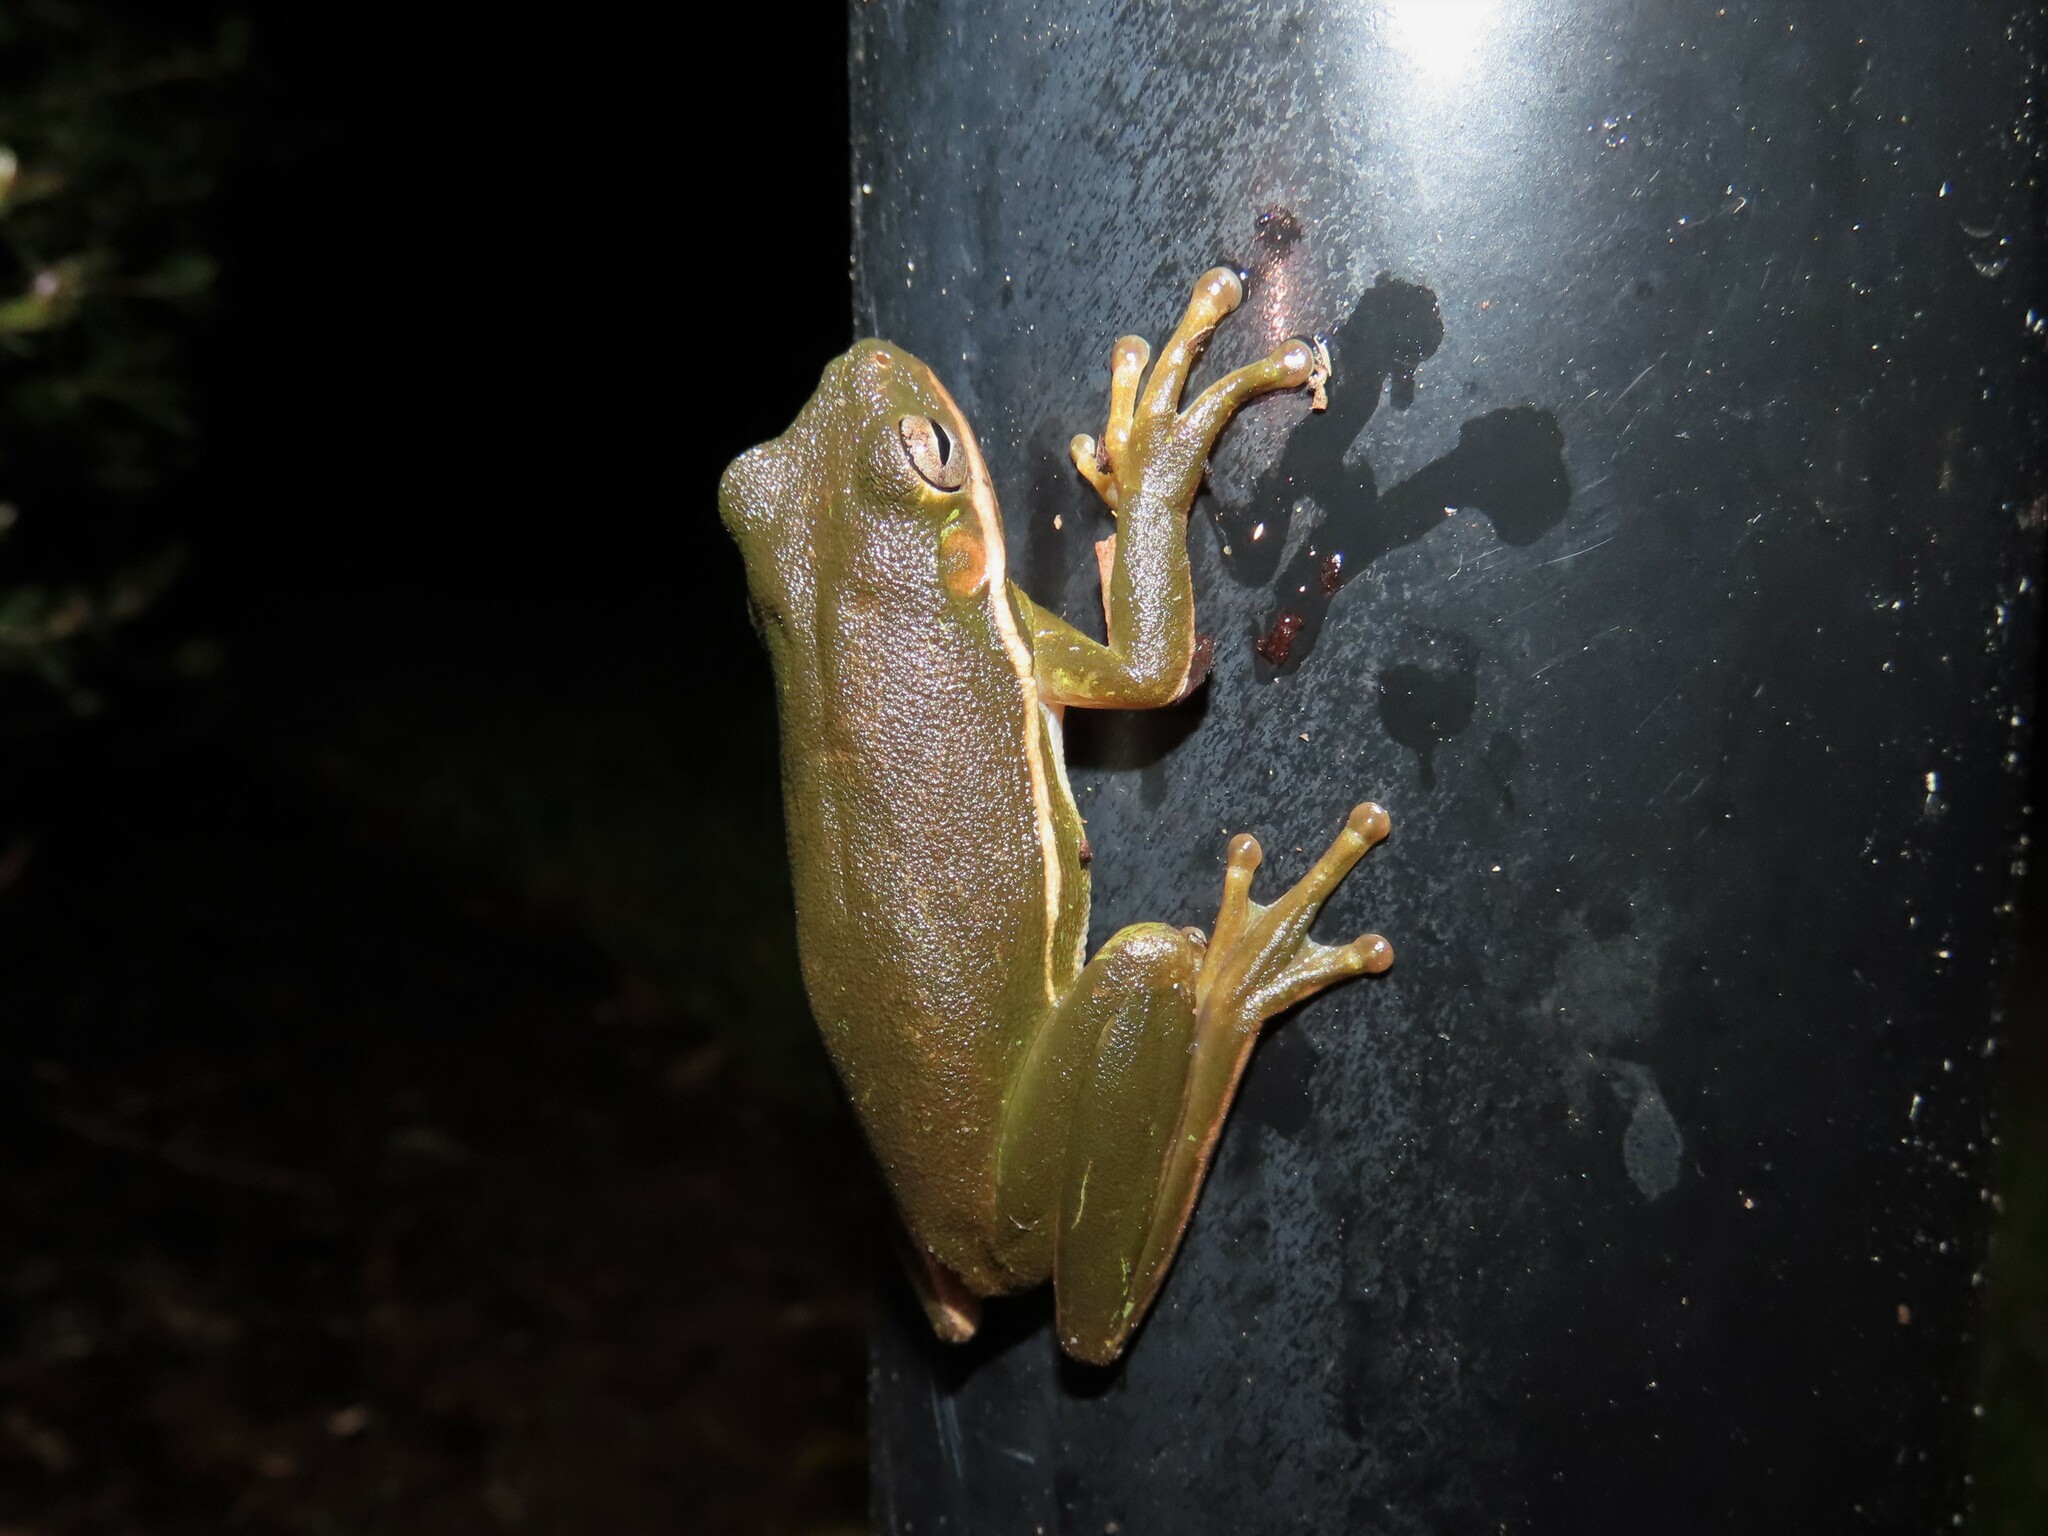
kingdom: Animalia
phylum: Chordata
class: Amphibia
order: Anura
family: Hylidae
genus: Dryophytes
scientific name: Dryophytes cinereus
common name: Green treefrog
